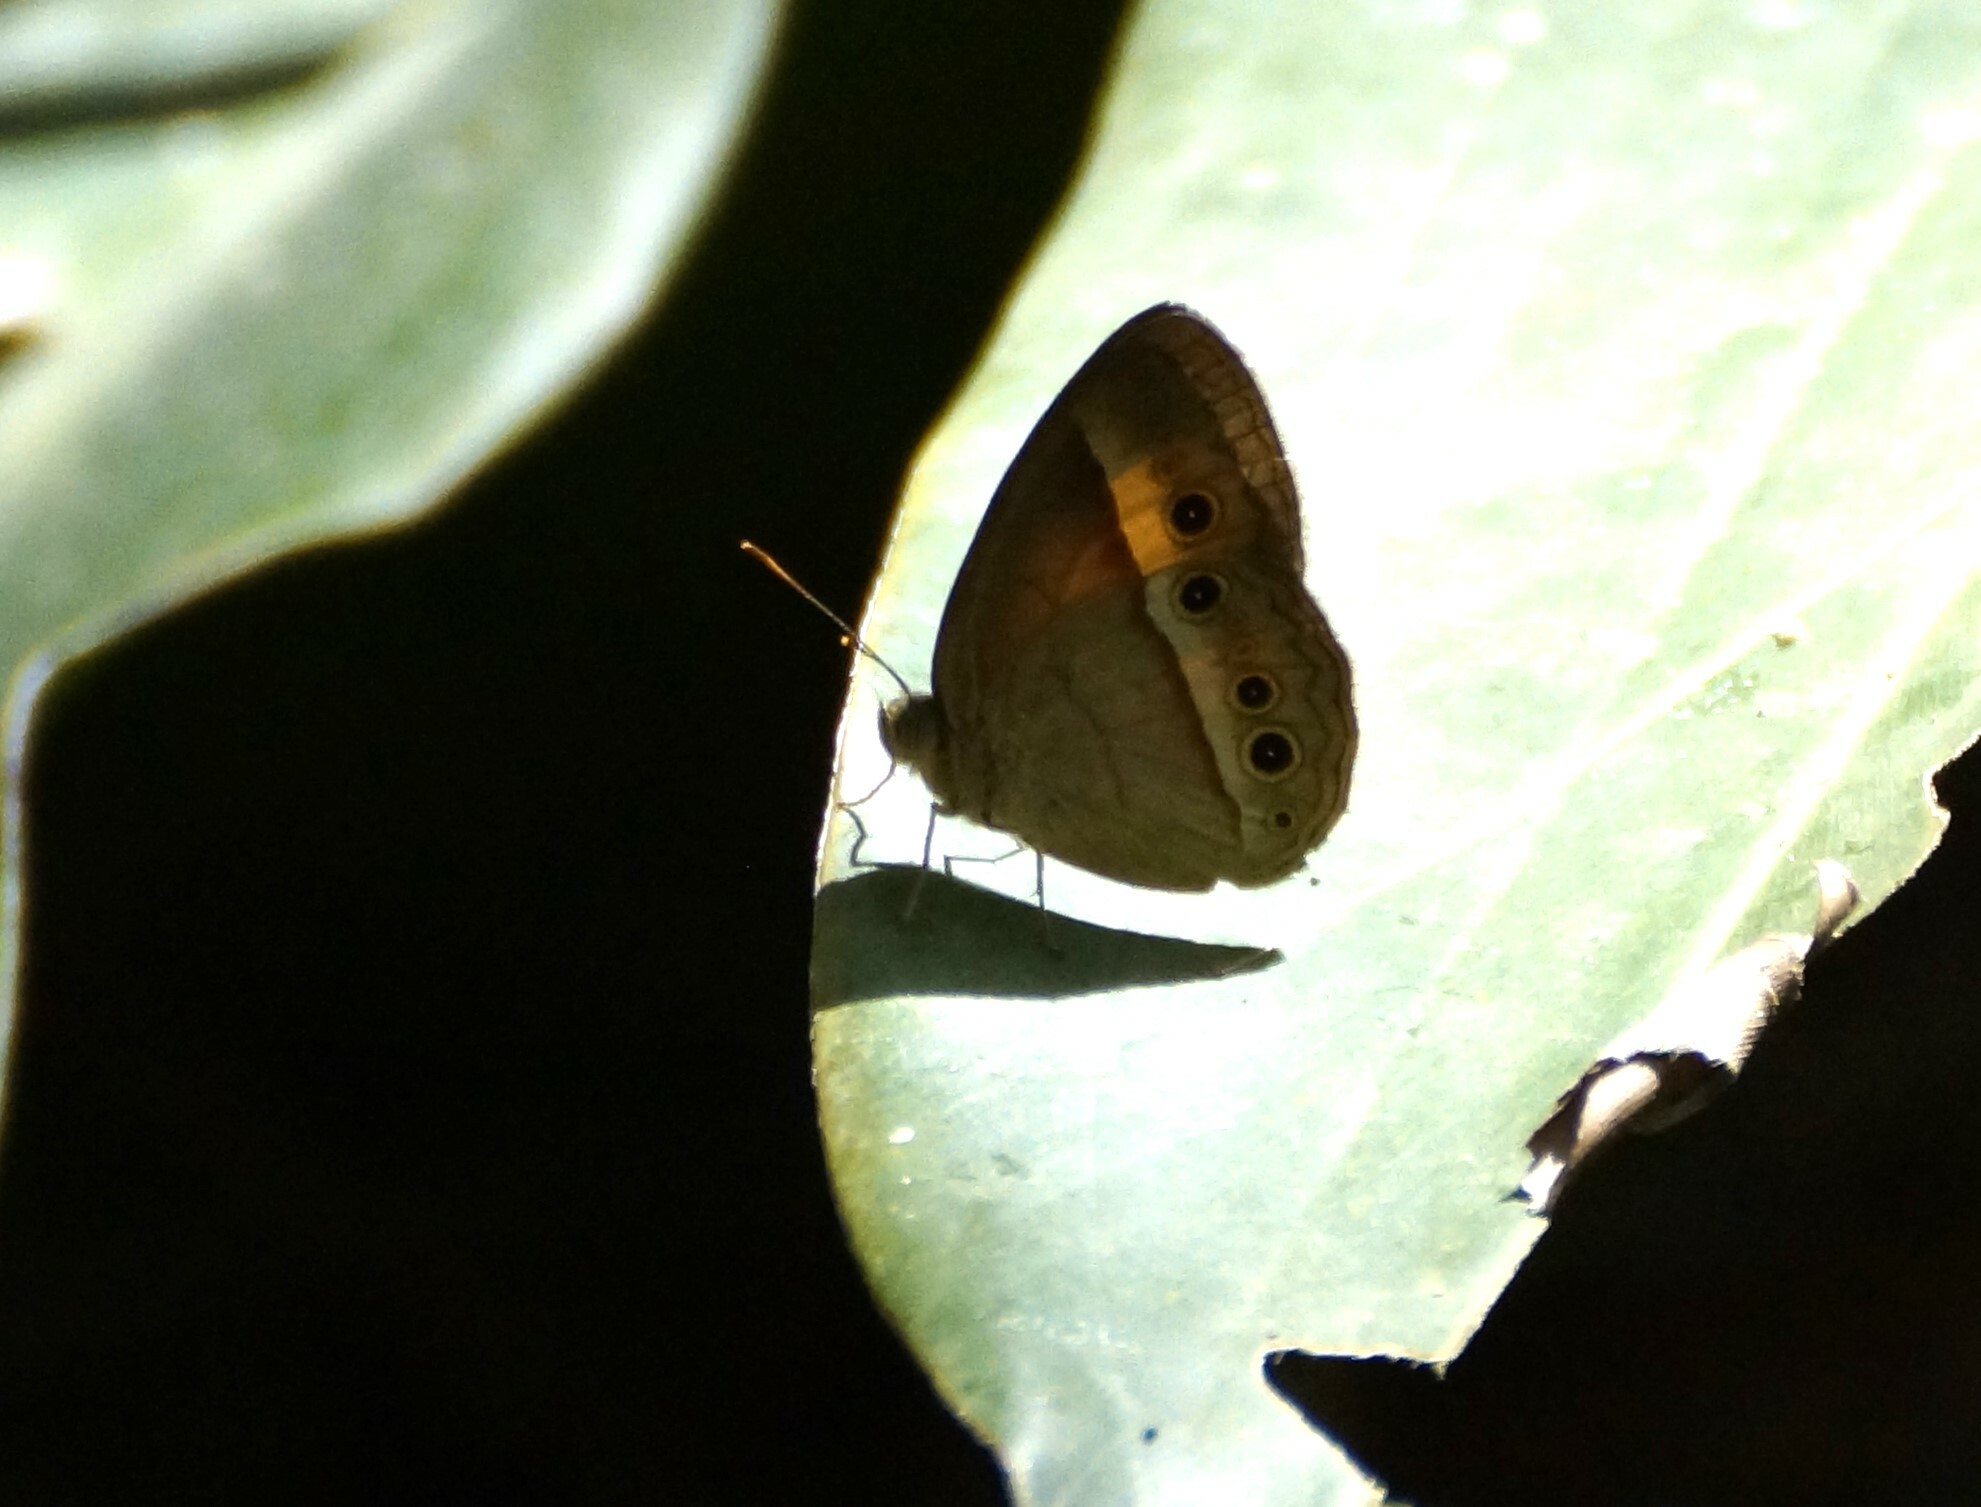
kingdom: Animalia
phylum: Arthropoda
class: Insecta
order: Lepidoptera
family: Nymphalidae
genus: Mycalesis
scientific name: Mycalesis terminus
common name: Orange bushbrown
